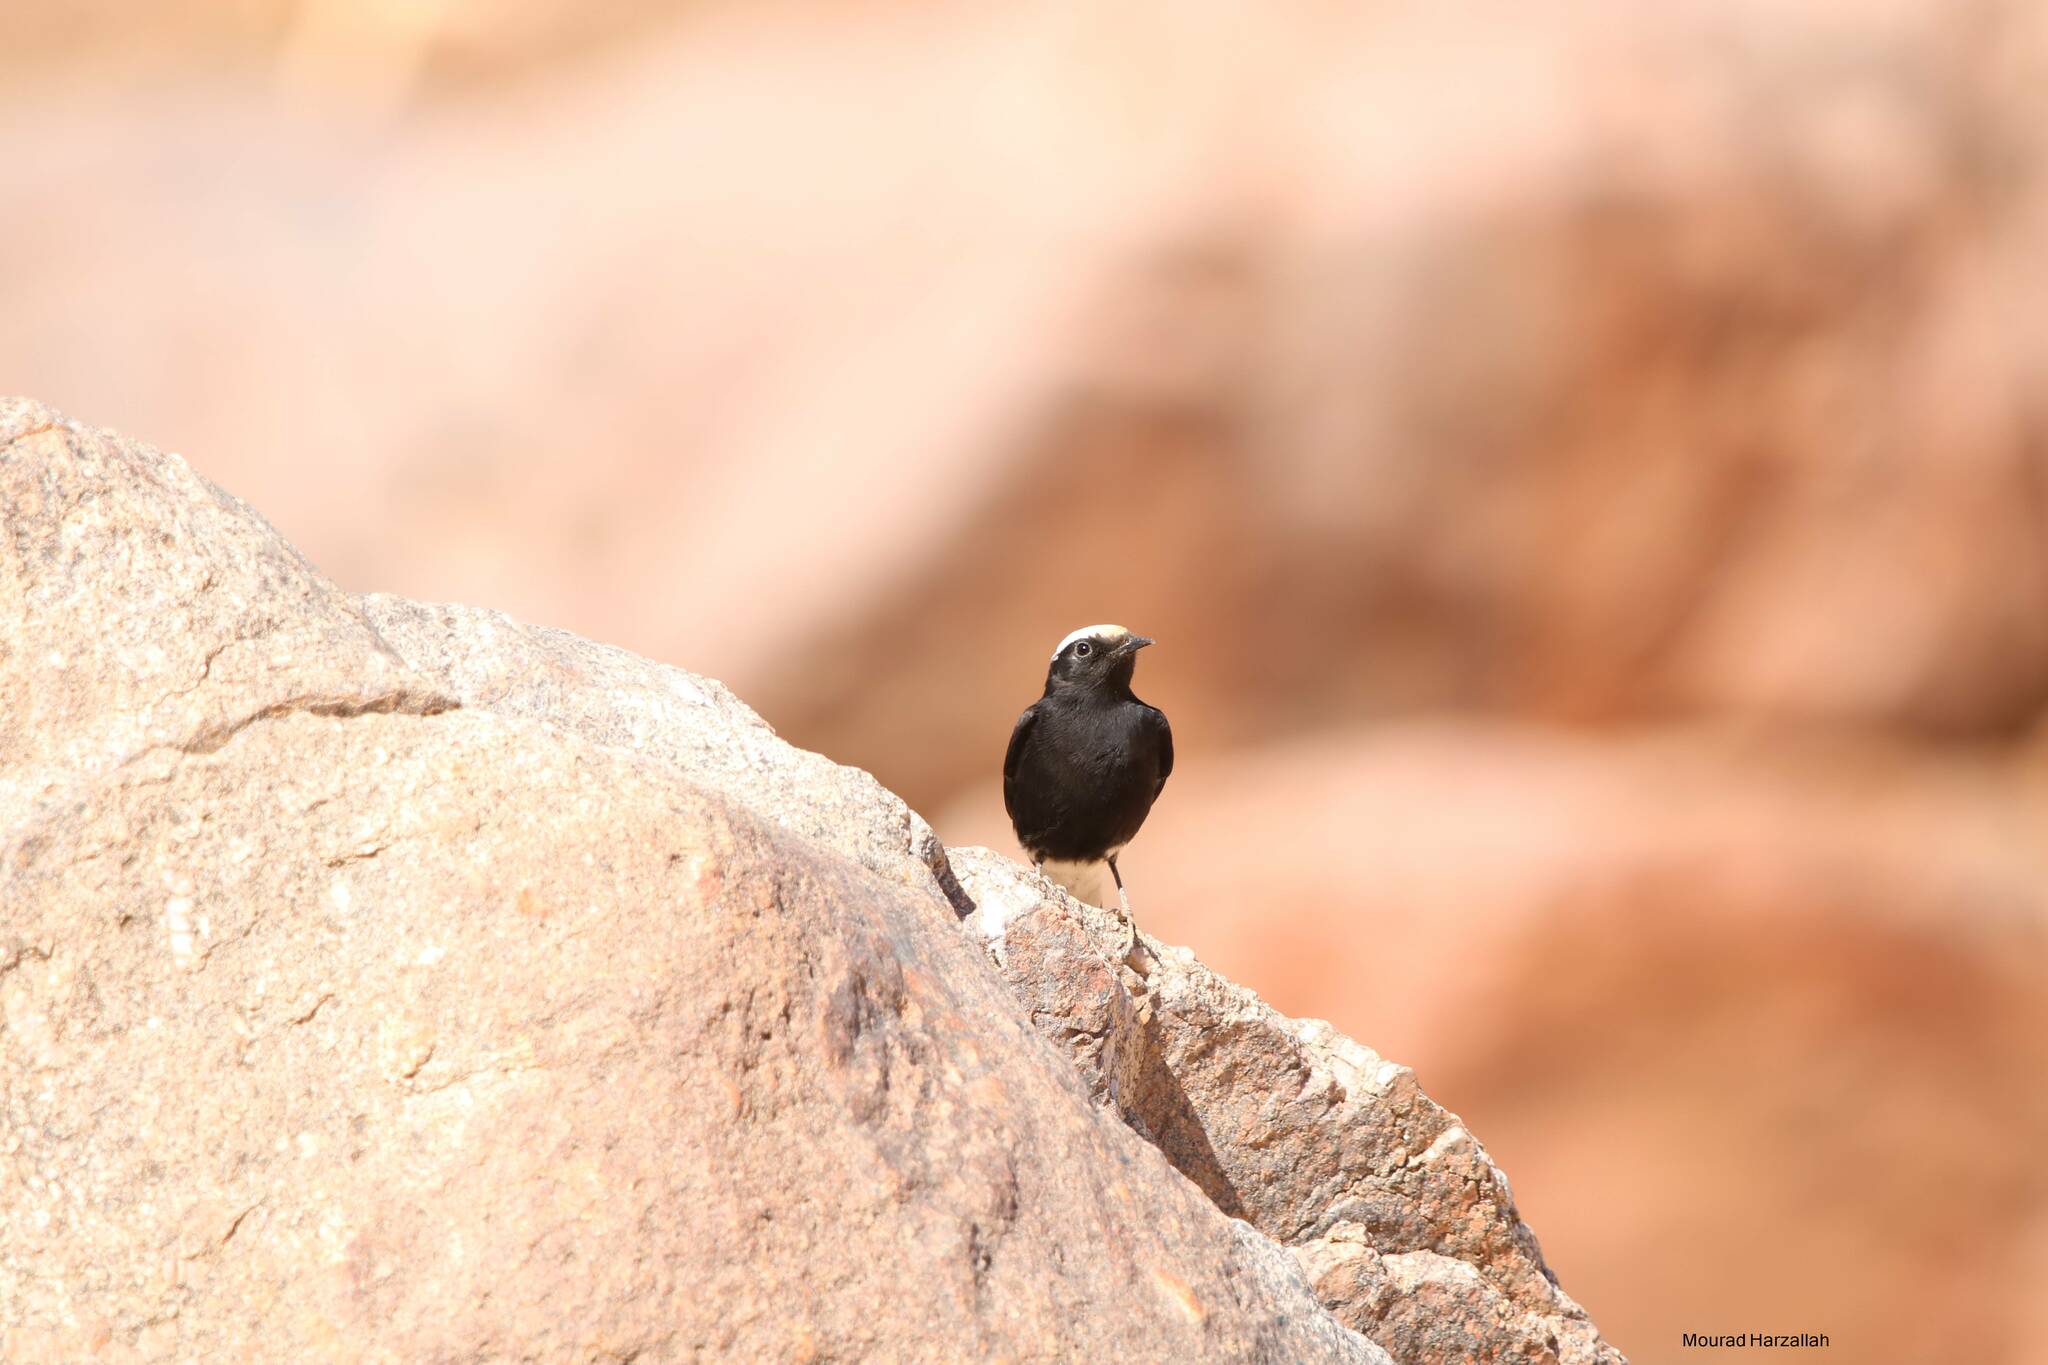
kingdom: Animalia
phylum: Chordata
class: Aves
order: Passeriformes
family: Muscicapidae
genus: Oenanthe
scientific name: Oenanthe leucopyga
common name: White-crowned wheatear
